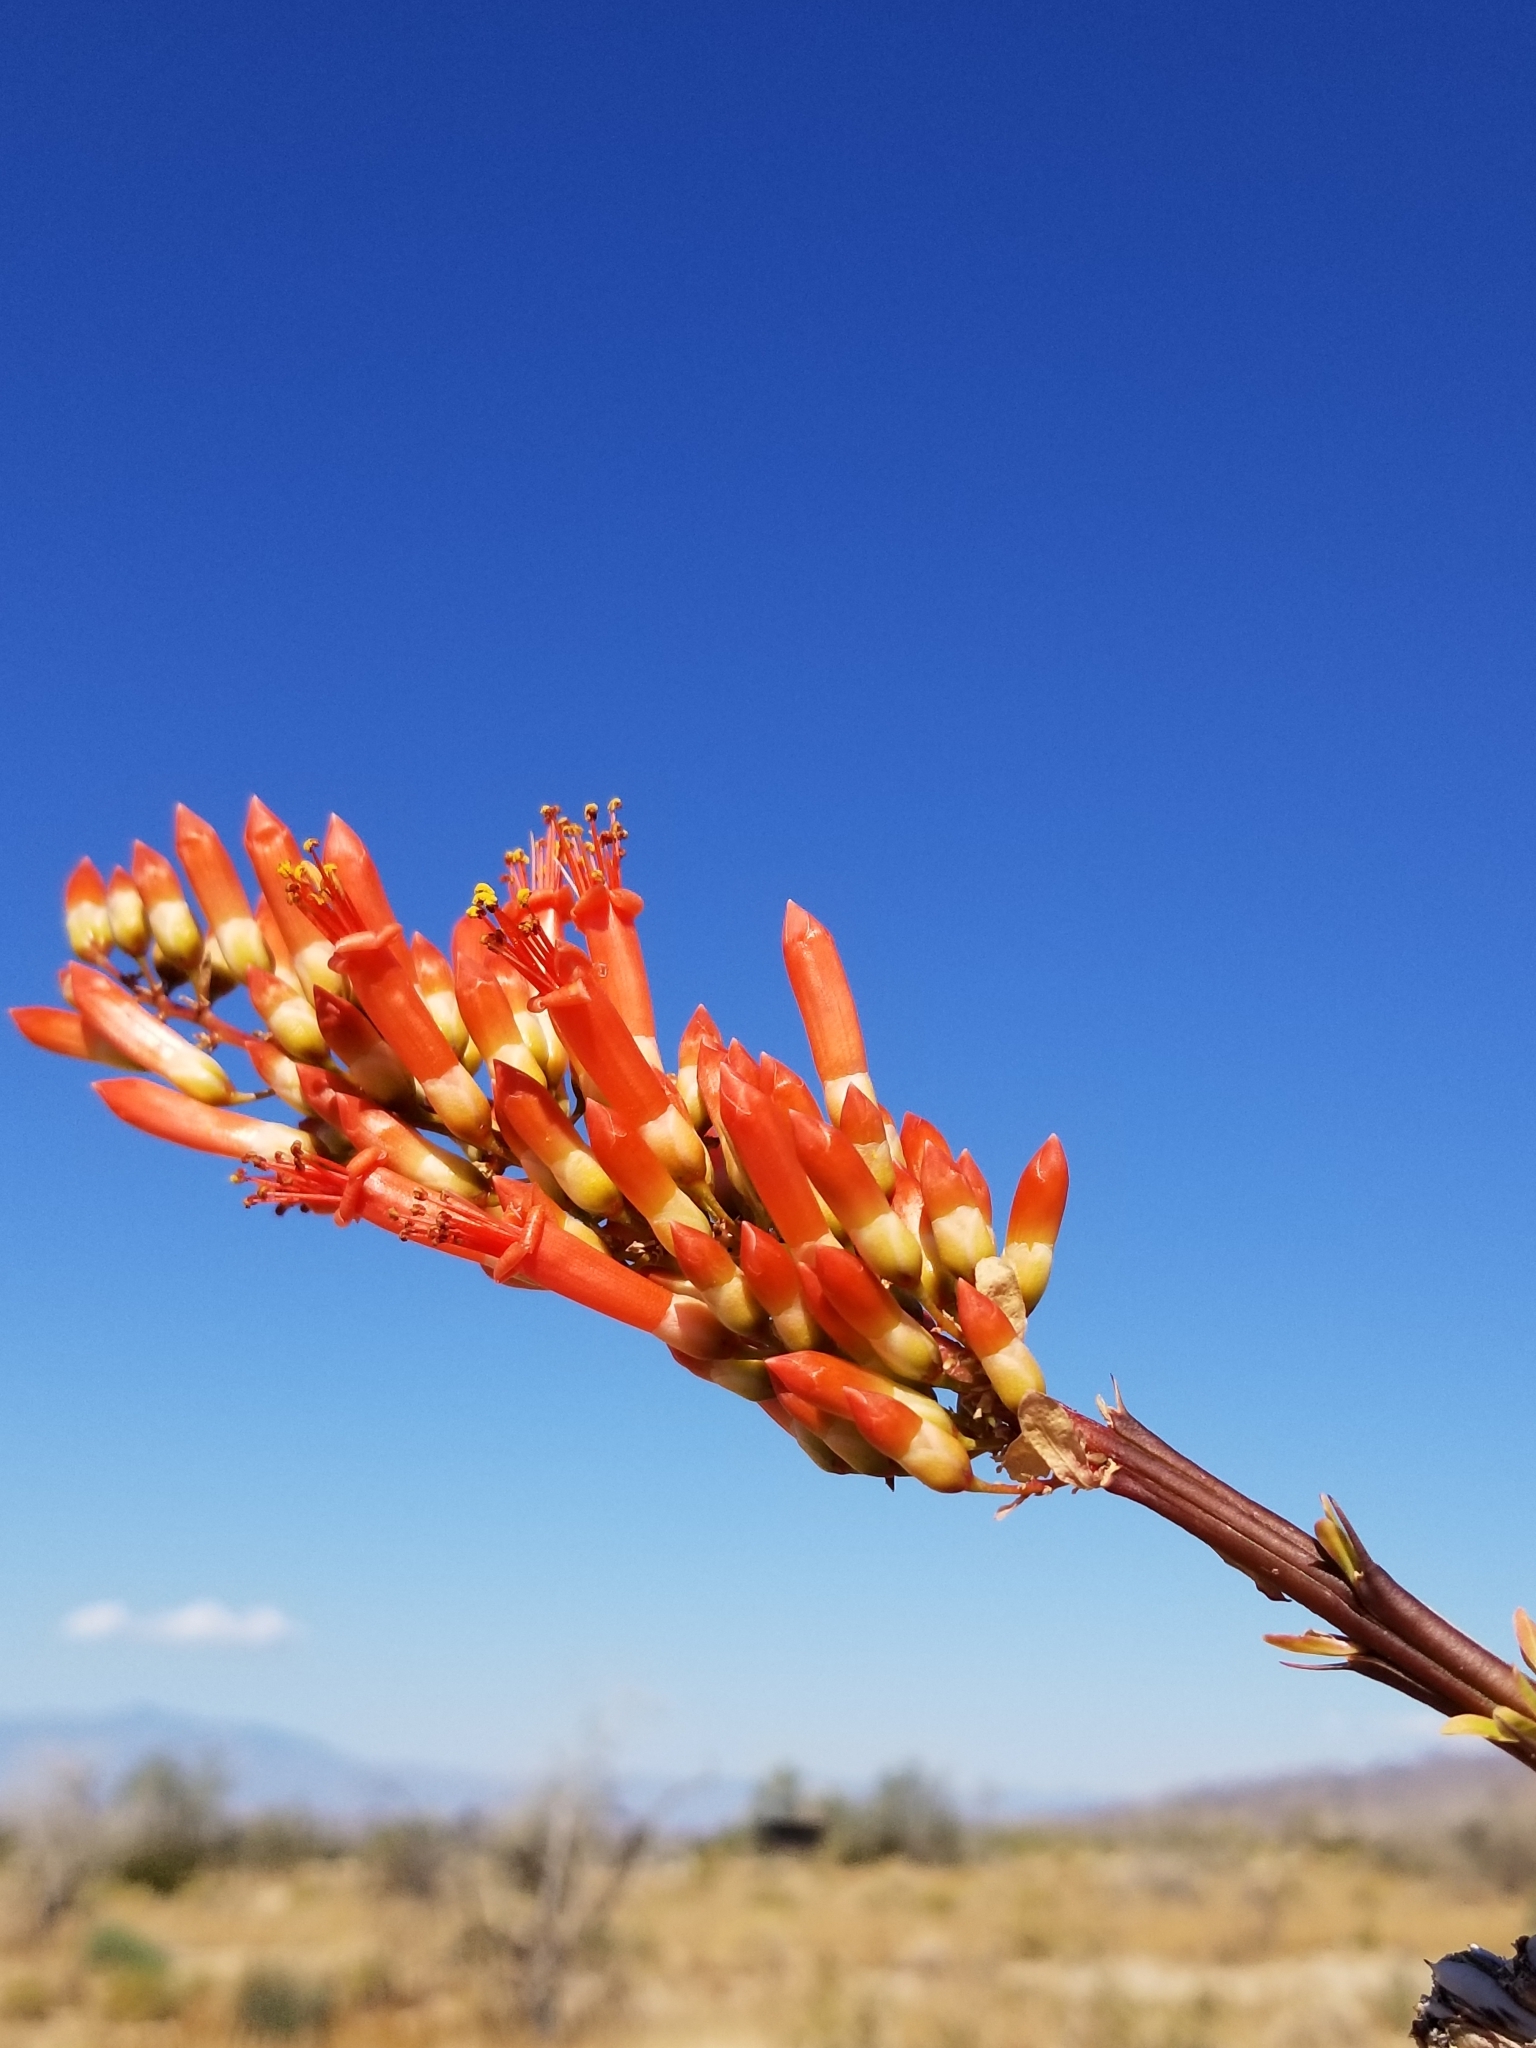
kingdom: Plantae
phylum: Tracheophyta
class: Magnoliopsida
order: Ericales
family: Fouquieriaceae
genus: Fouquieria
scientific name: Fouquieria splendens
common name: Vine-cactus
